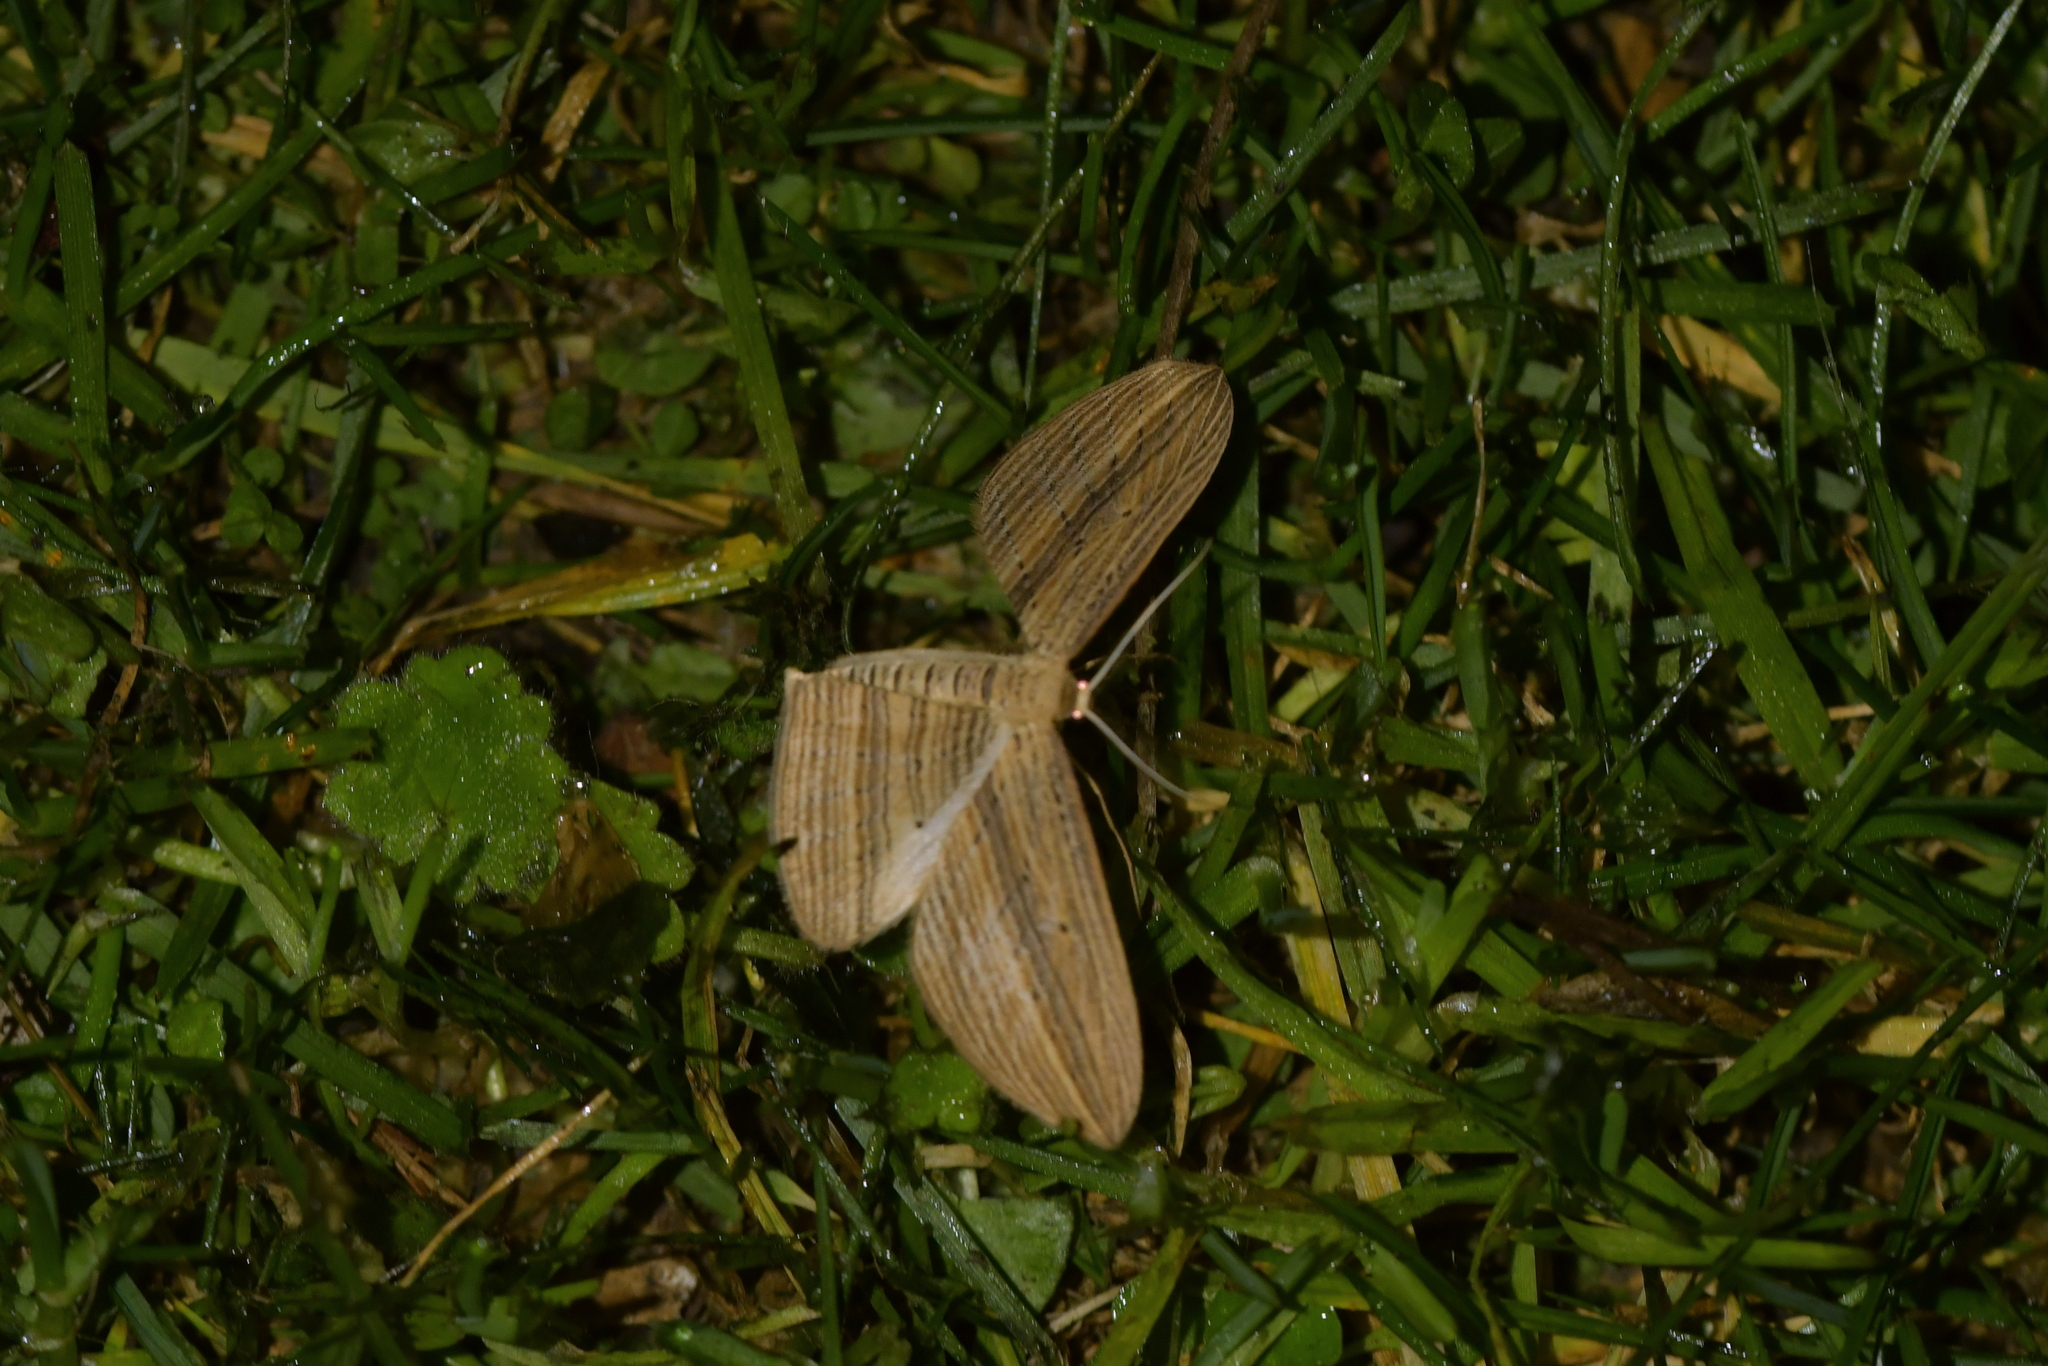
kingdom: Animalia
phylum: Arthropoda
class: Insecta
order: Lepidoptera
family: Geometridae
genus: Epiphryne
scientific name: Epiphryne verriculata
